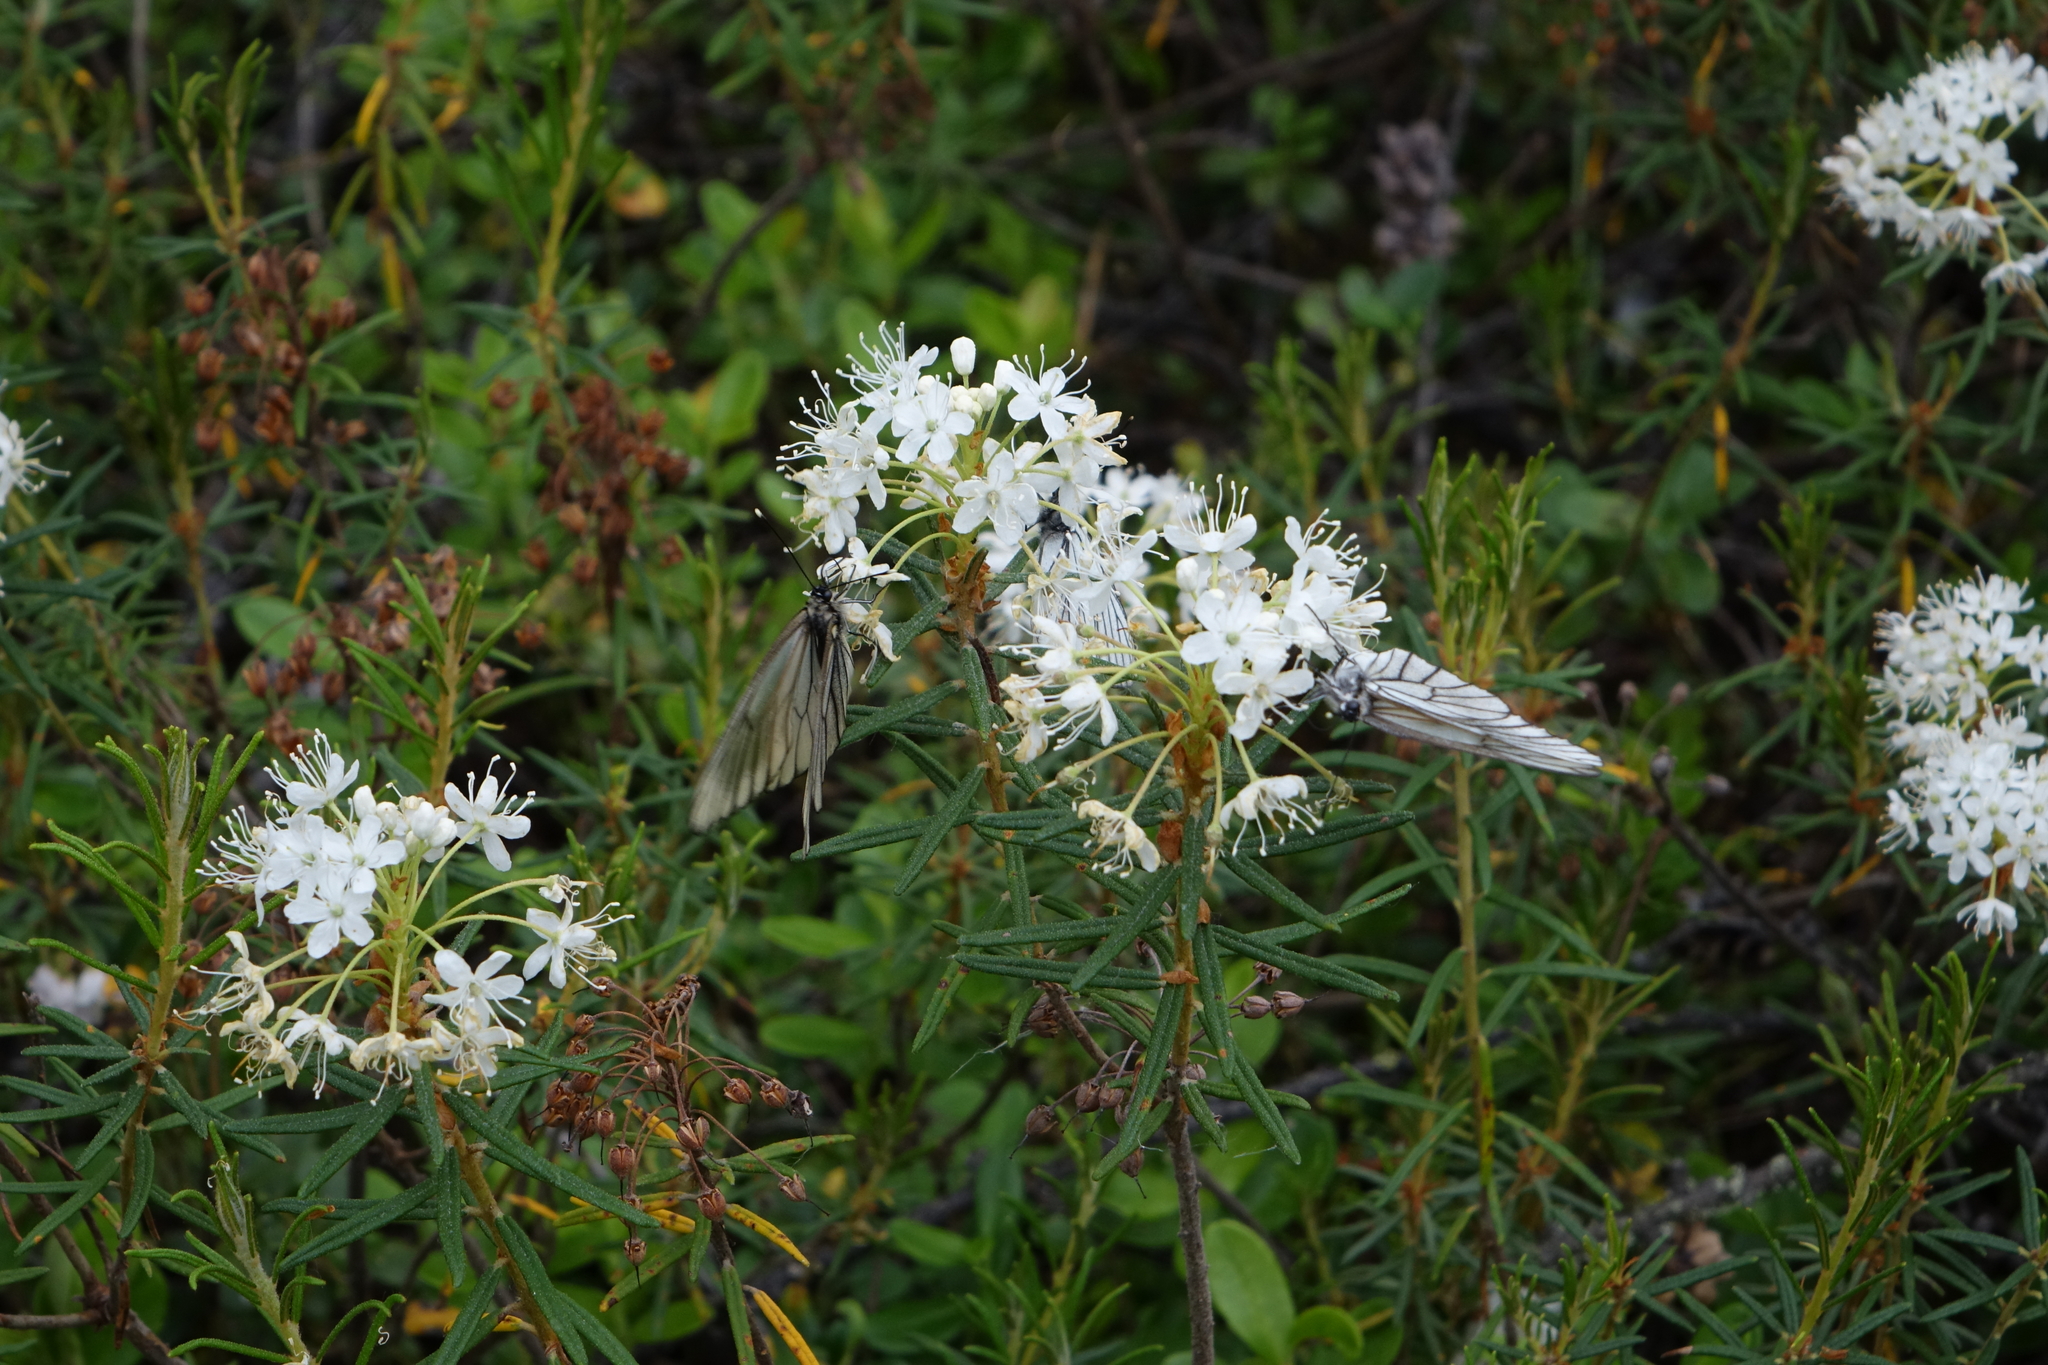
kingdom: Animalia
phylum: Arthropoda
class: Insecta
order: Lepidoptera
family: Pieridae
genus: Aporia
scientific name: Aporia crataegi
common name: Black-veined white
